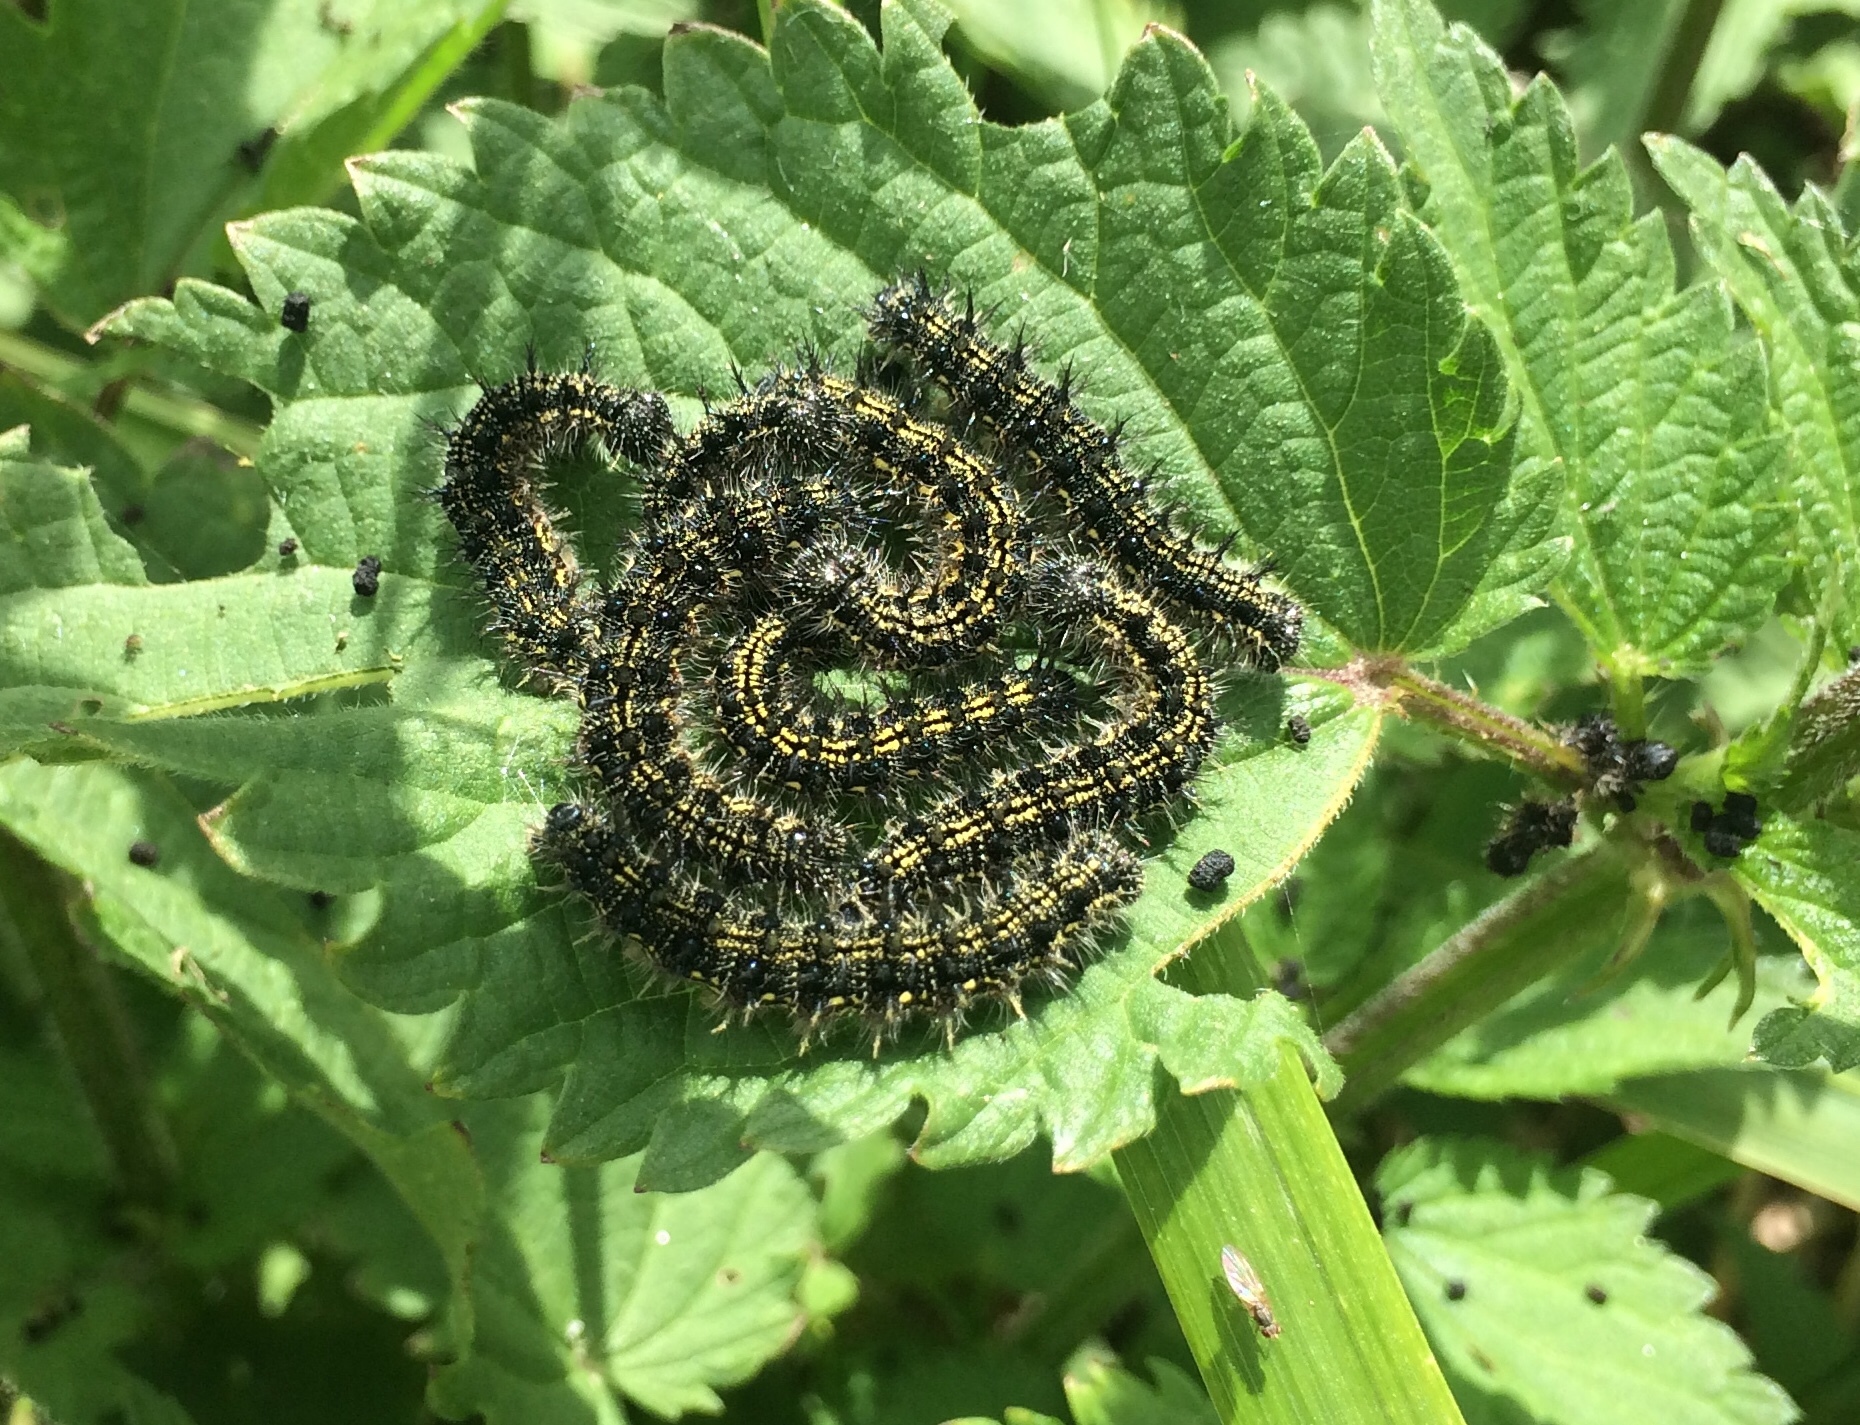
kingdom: Animalia
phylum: Arthropoda
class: Insecta
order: Lepidoptera
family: Nymphalidae
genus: Aglais
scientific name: Aglais urticae
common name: Small tortoiseshell
